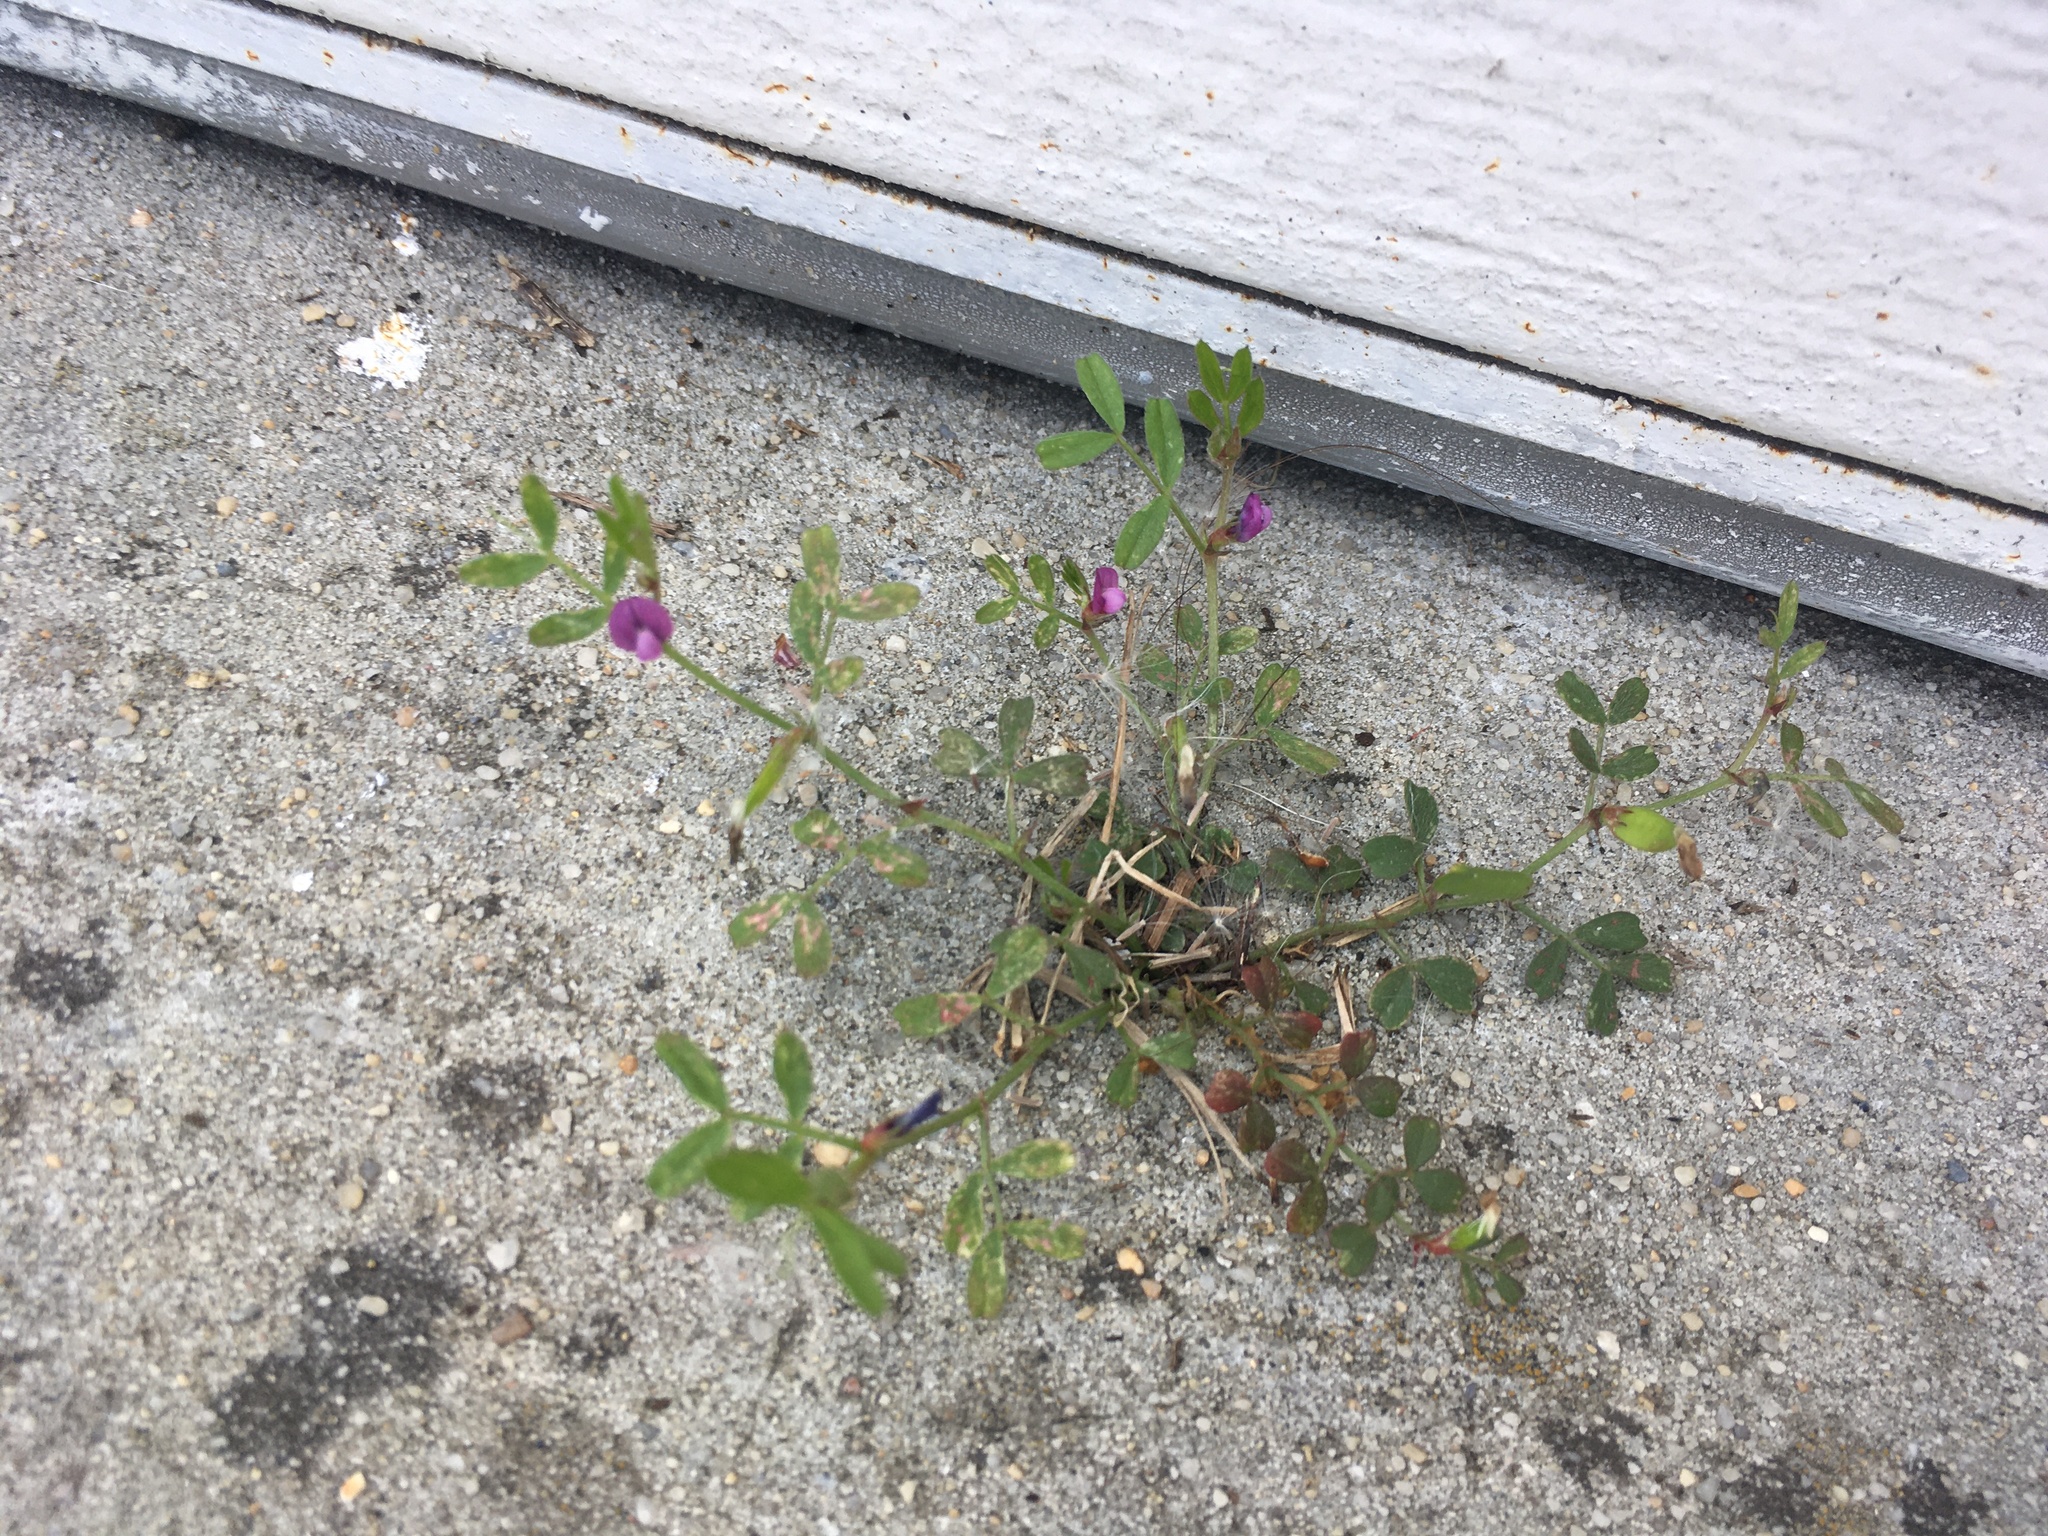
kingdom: Plantae
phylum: Tracheophyta
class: Magnoliopsida
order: Fabales
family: Fabaceae
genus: Vicia
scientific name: Vicia lathyroides
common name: Spring vetch
